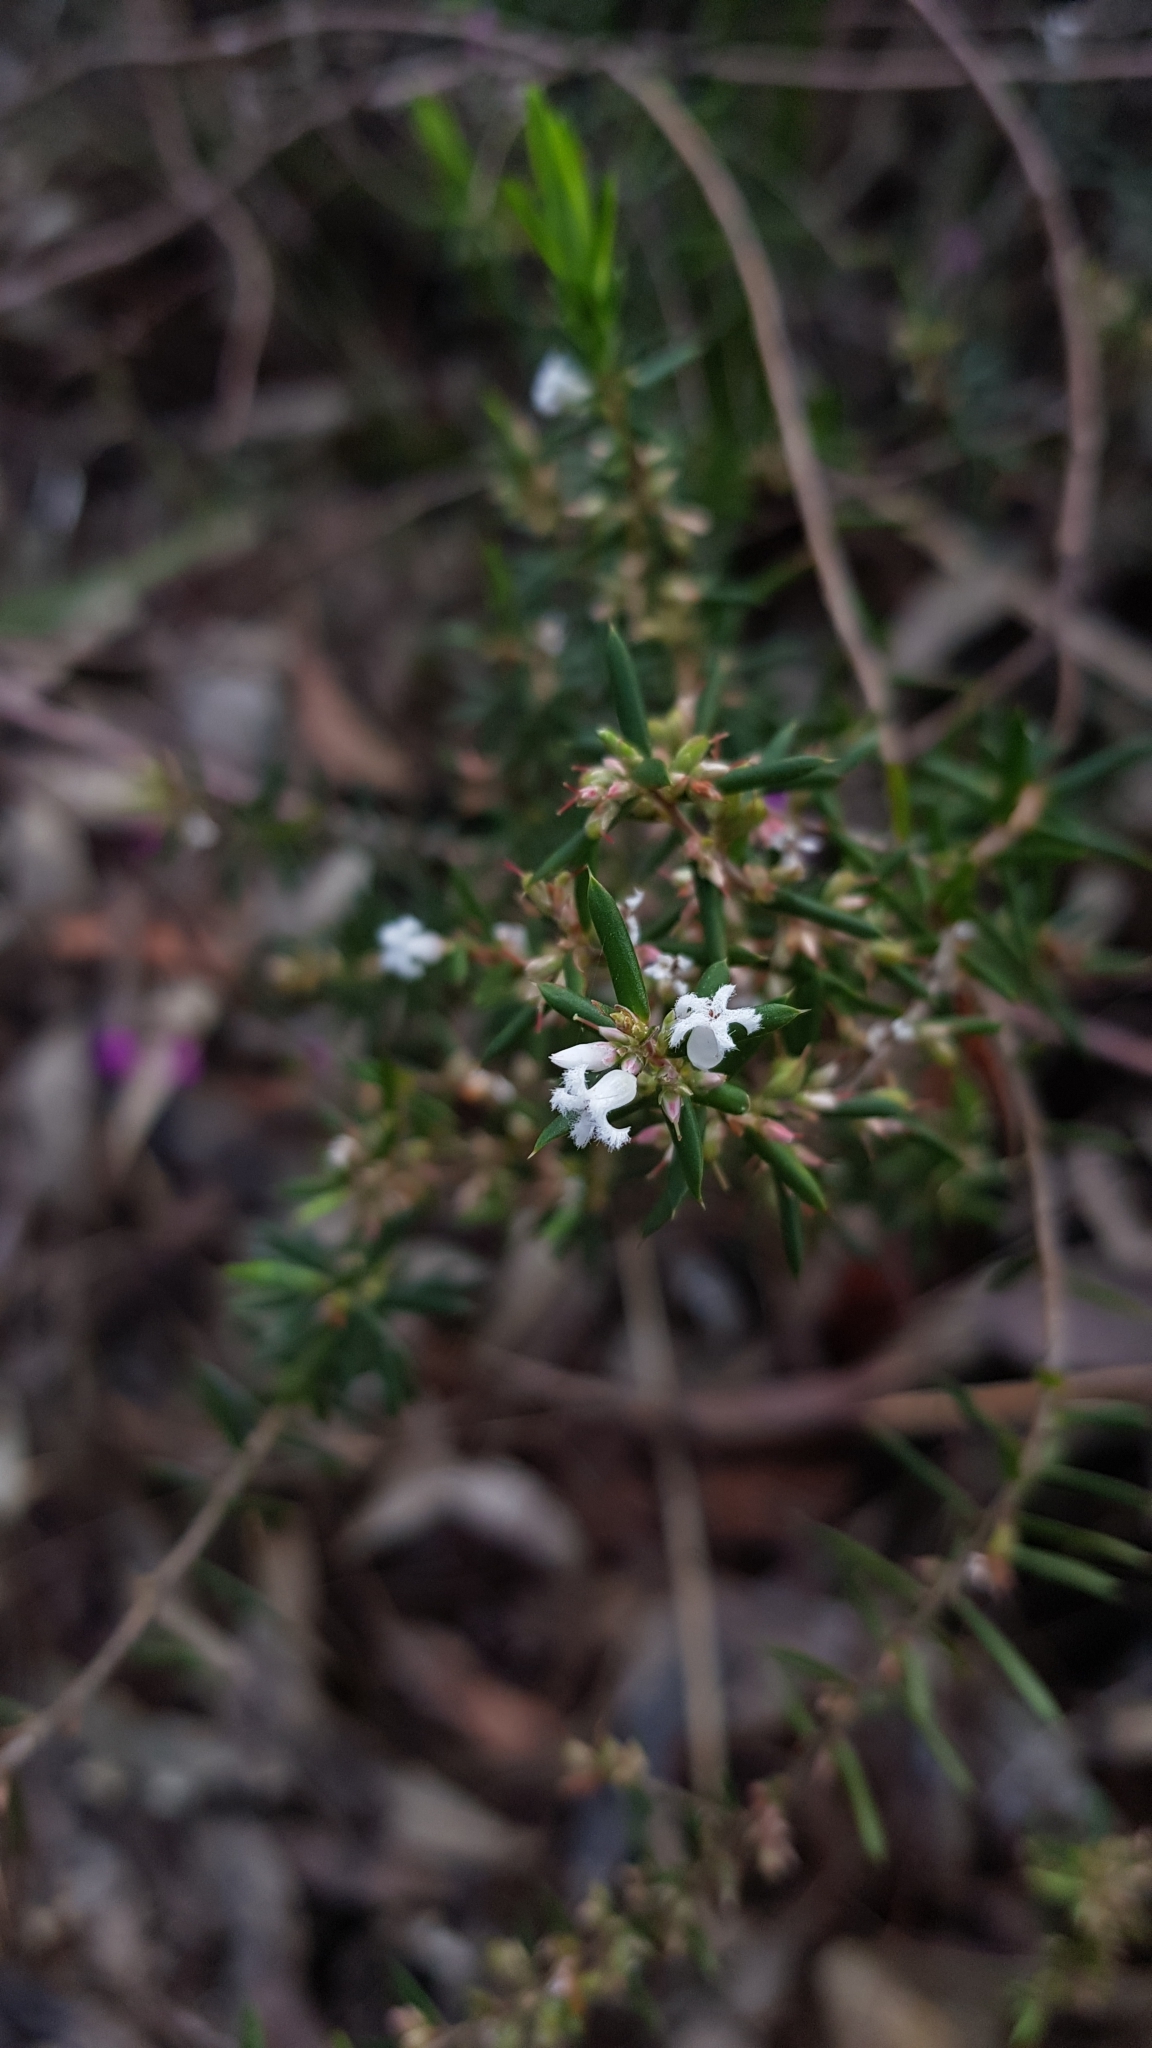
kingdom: Plantae
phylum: Tracheophyta
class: Magnoliopsida
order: Ericales
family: Ericaceae
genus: Styphelia
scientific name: Styphelia ericoides
